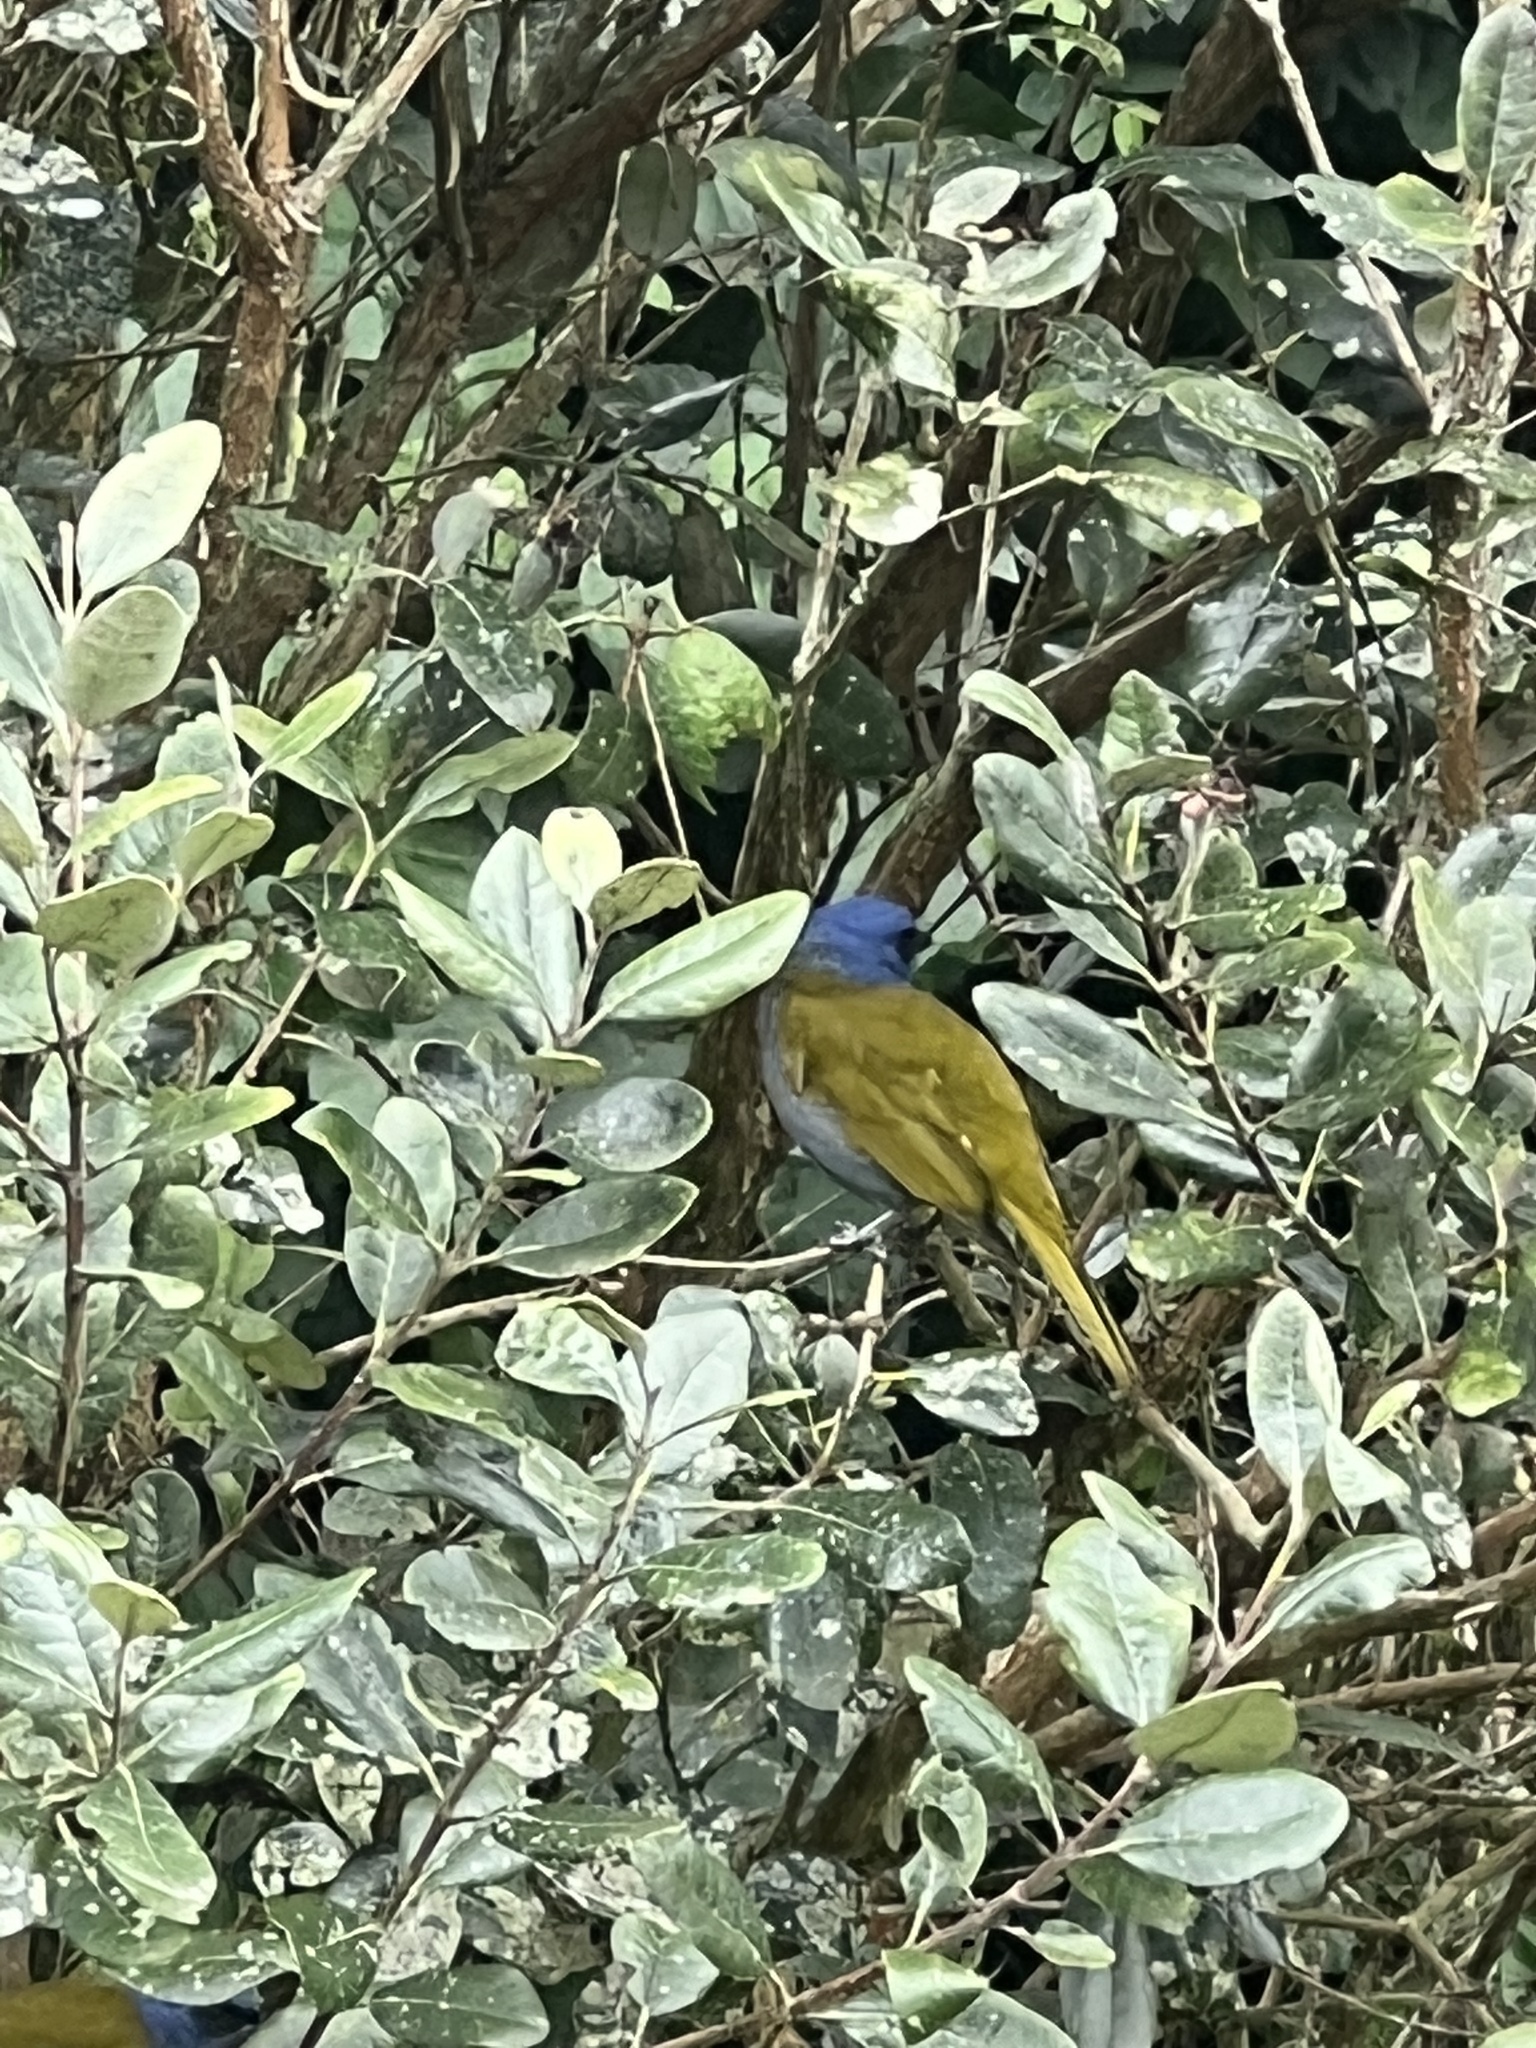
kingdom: Animalia
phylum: Chordata
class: Aves
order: Passeriformes
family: Thraupidae
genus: Sporathraupis
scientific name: Sporathraupis cyanocephala
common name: Blue-capped tanager
